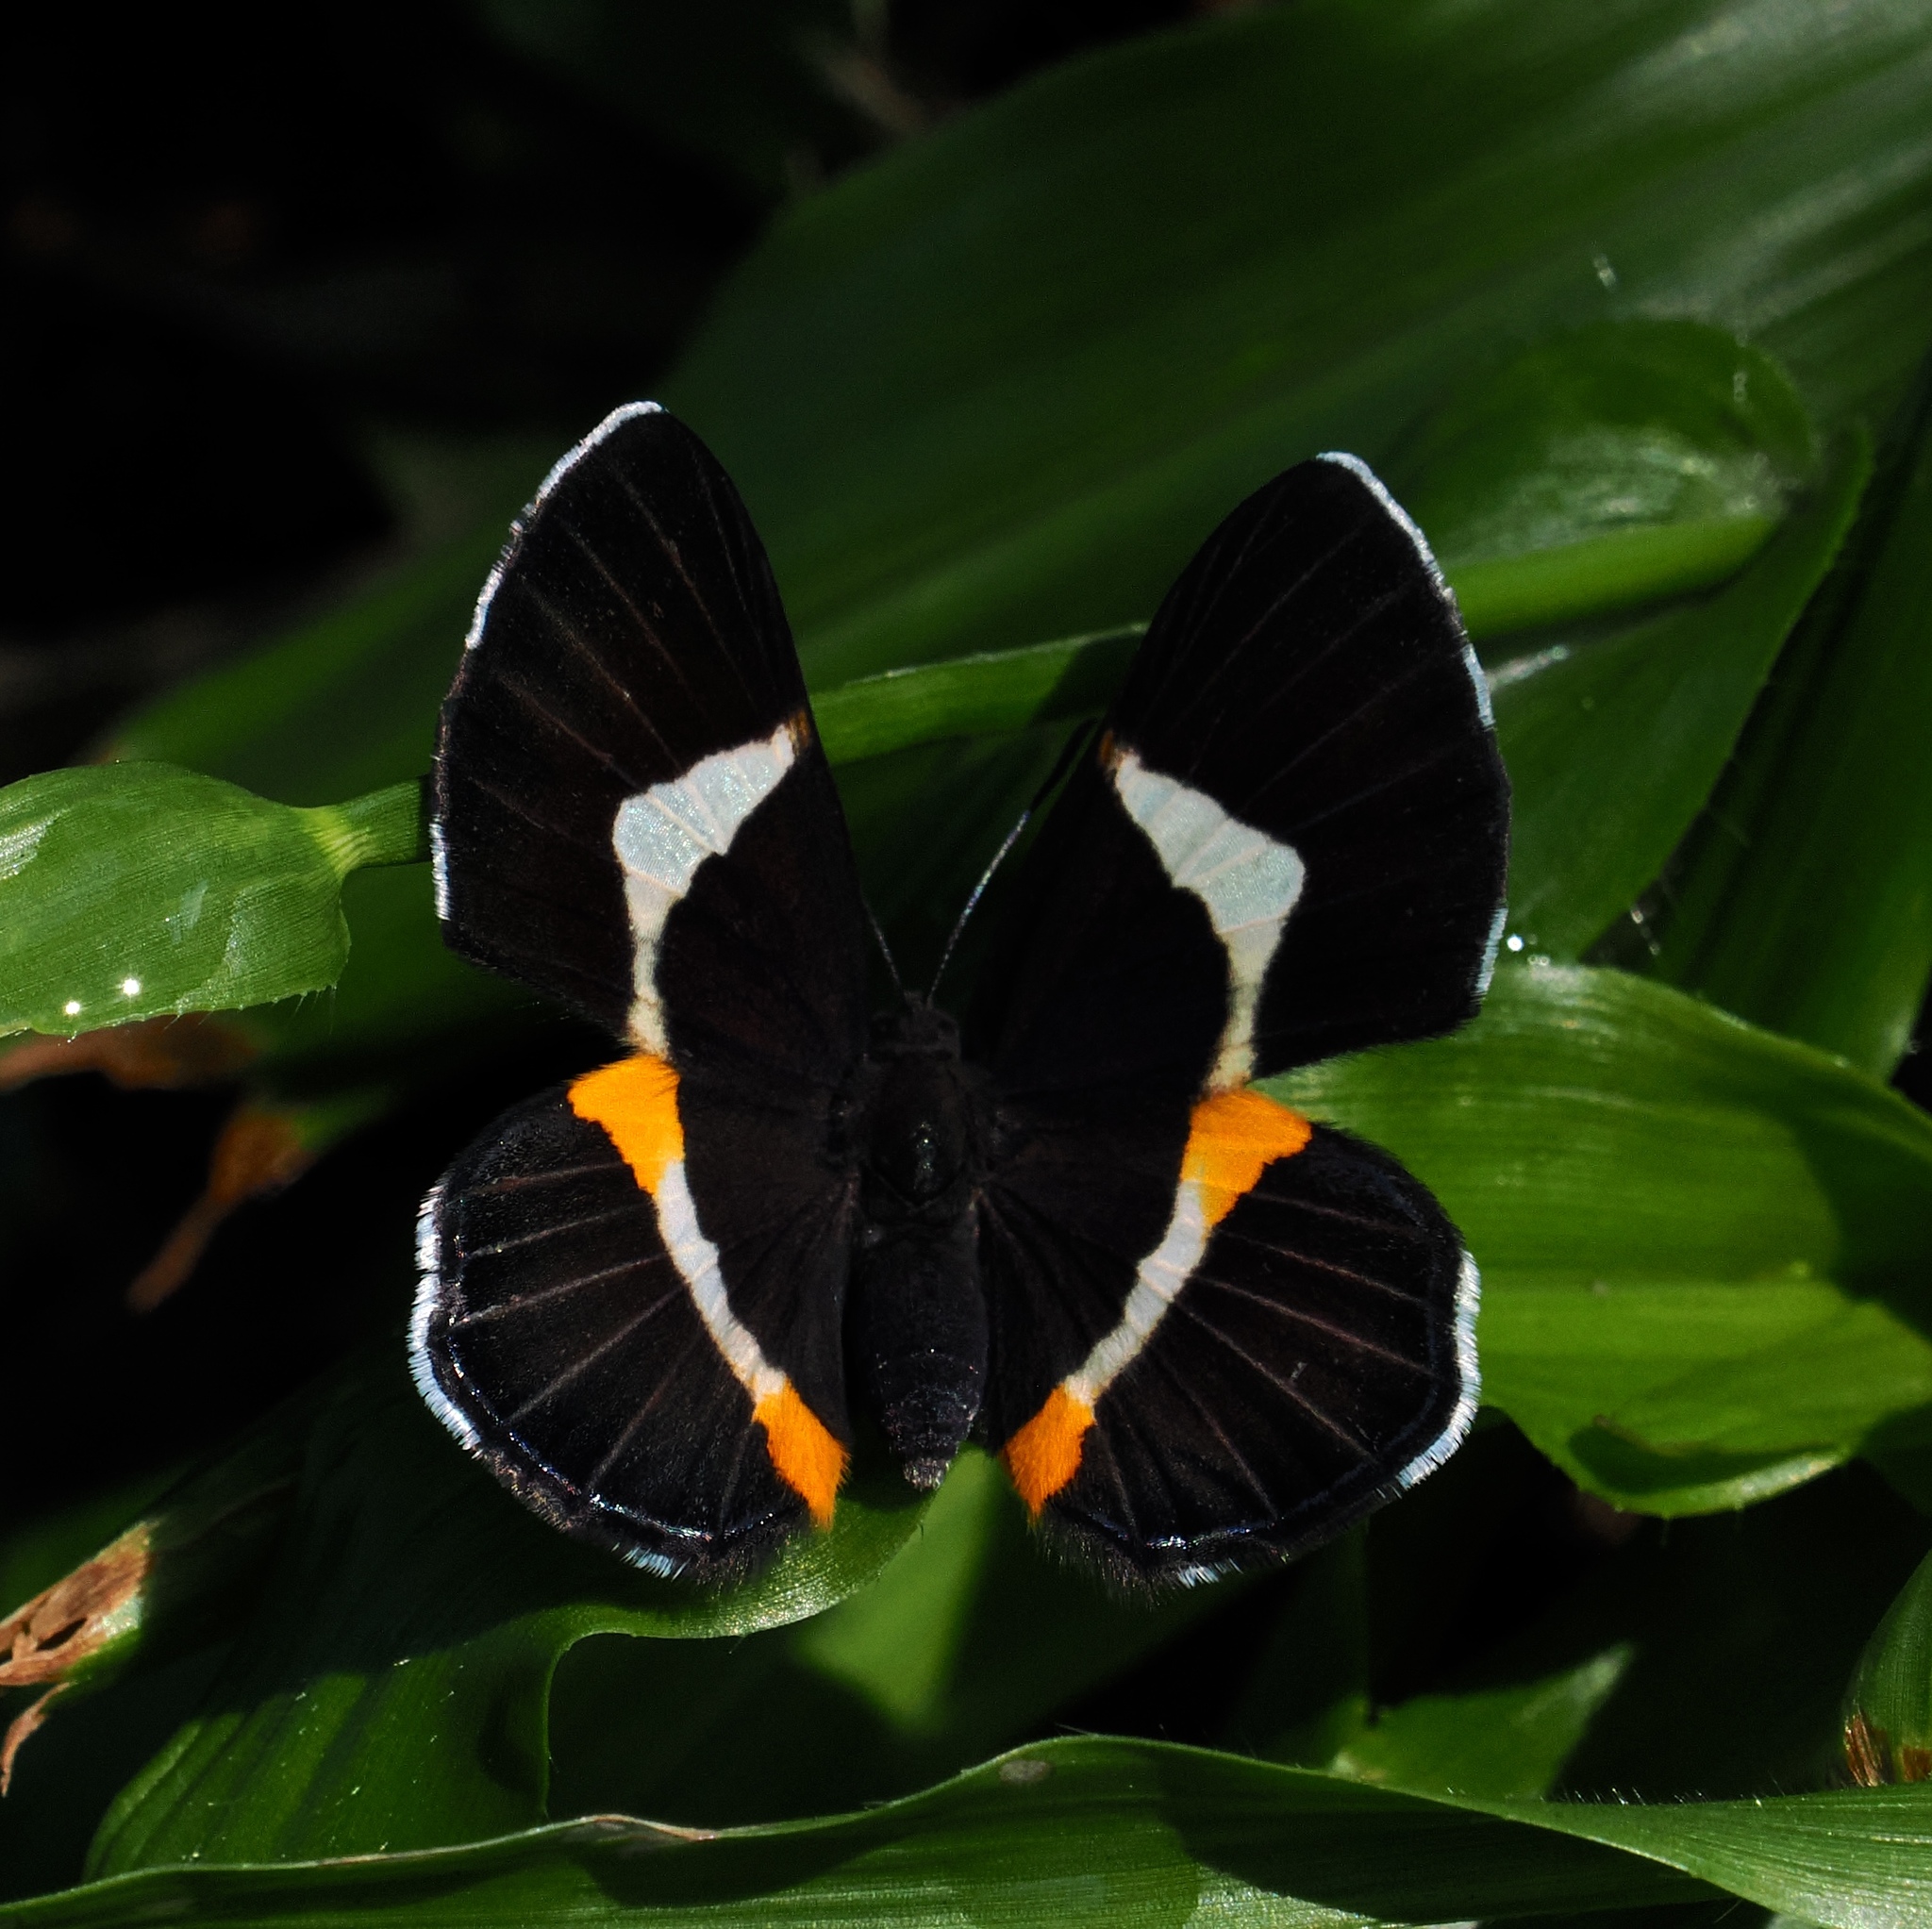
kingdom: Animalia
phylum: Arthropoda
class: Insecta
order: Lepidoptera
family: Riodinidae
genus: Notheme
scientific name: Notheme eumeus
